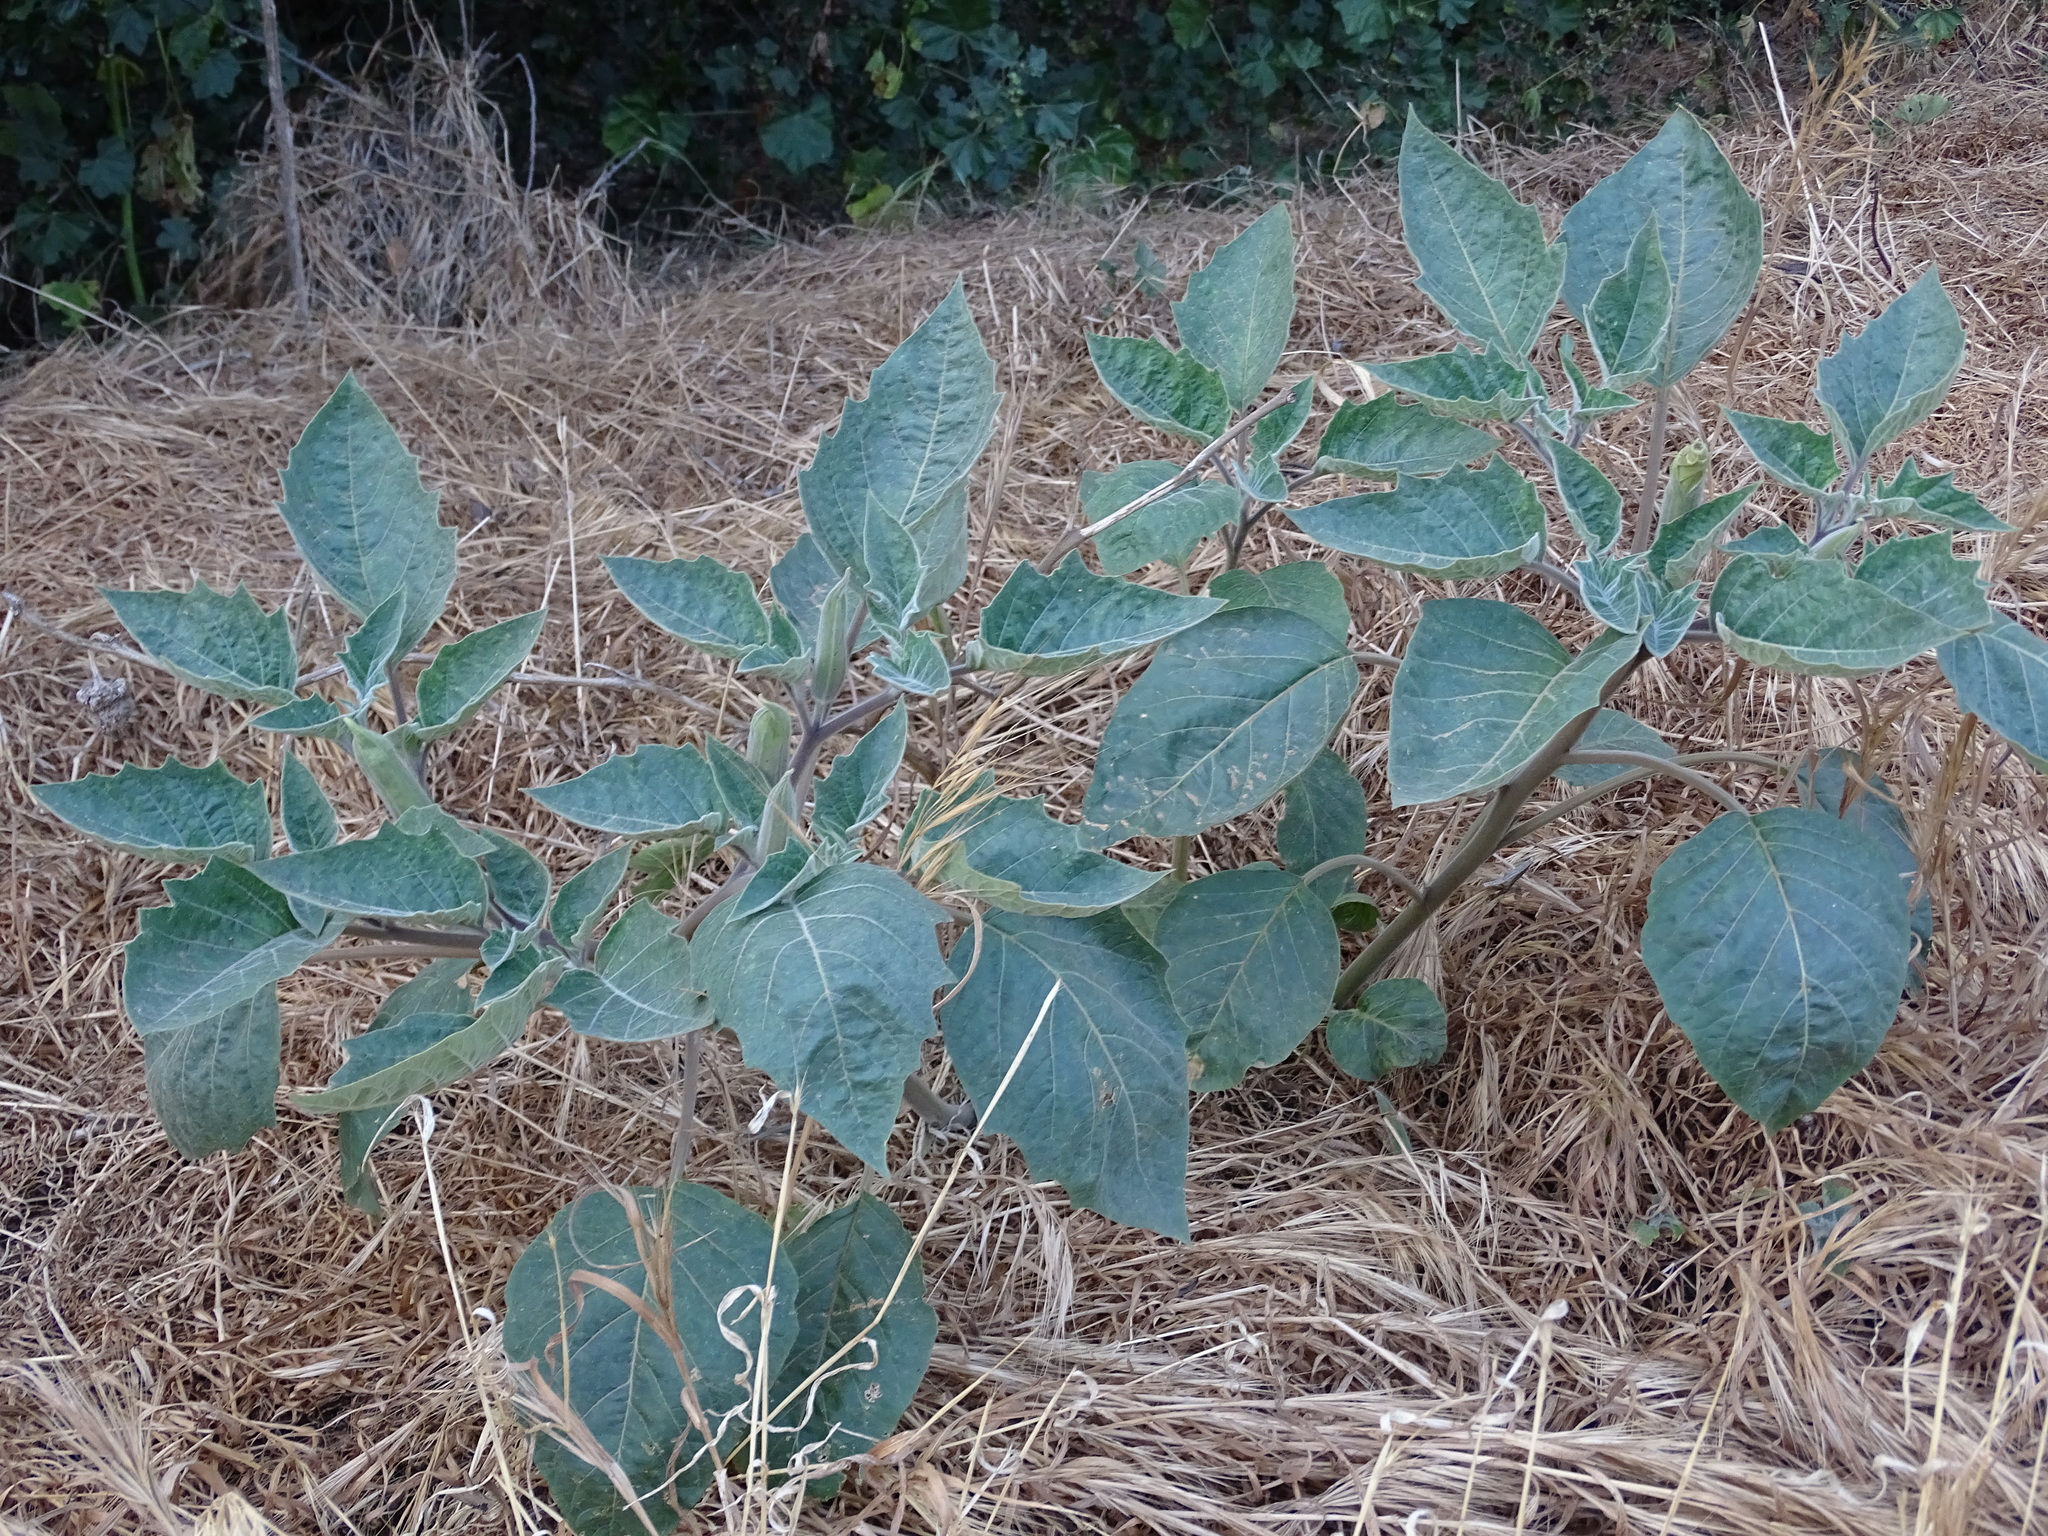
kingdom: Plantae
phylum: Tracheophyta
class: Magnoliopsida
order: Solanales
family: Solanaceae
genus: Datura
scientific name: Datura wrightii
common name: Sacred thorn-apple
